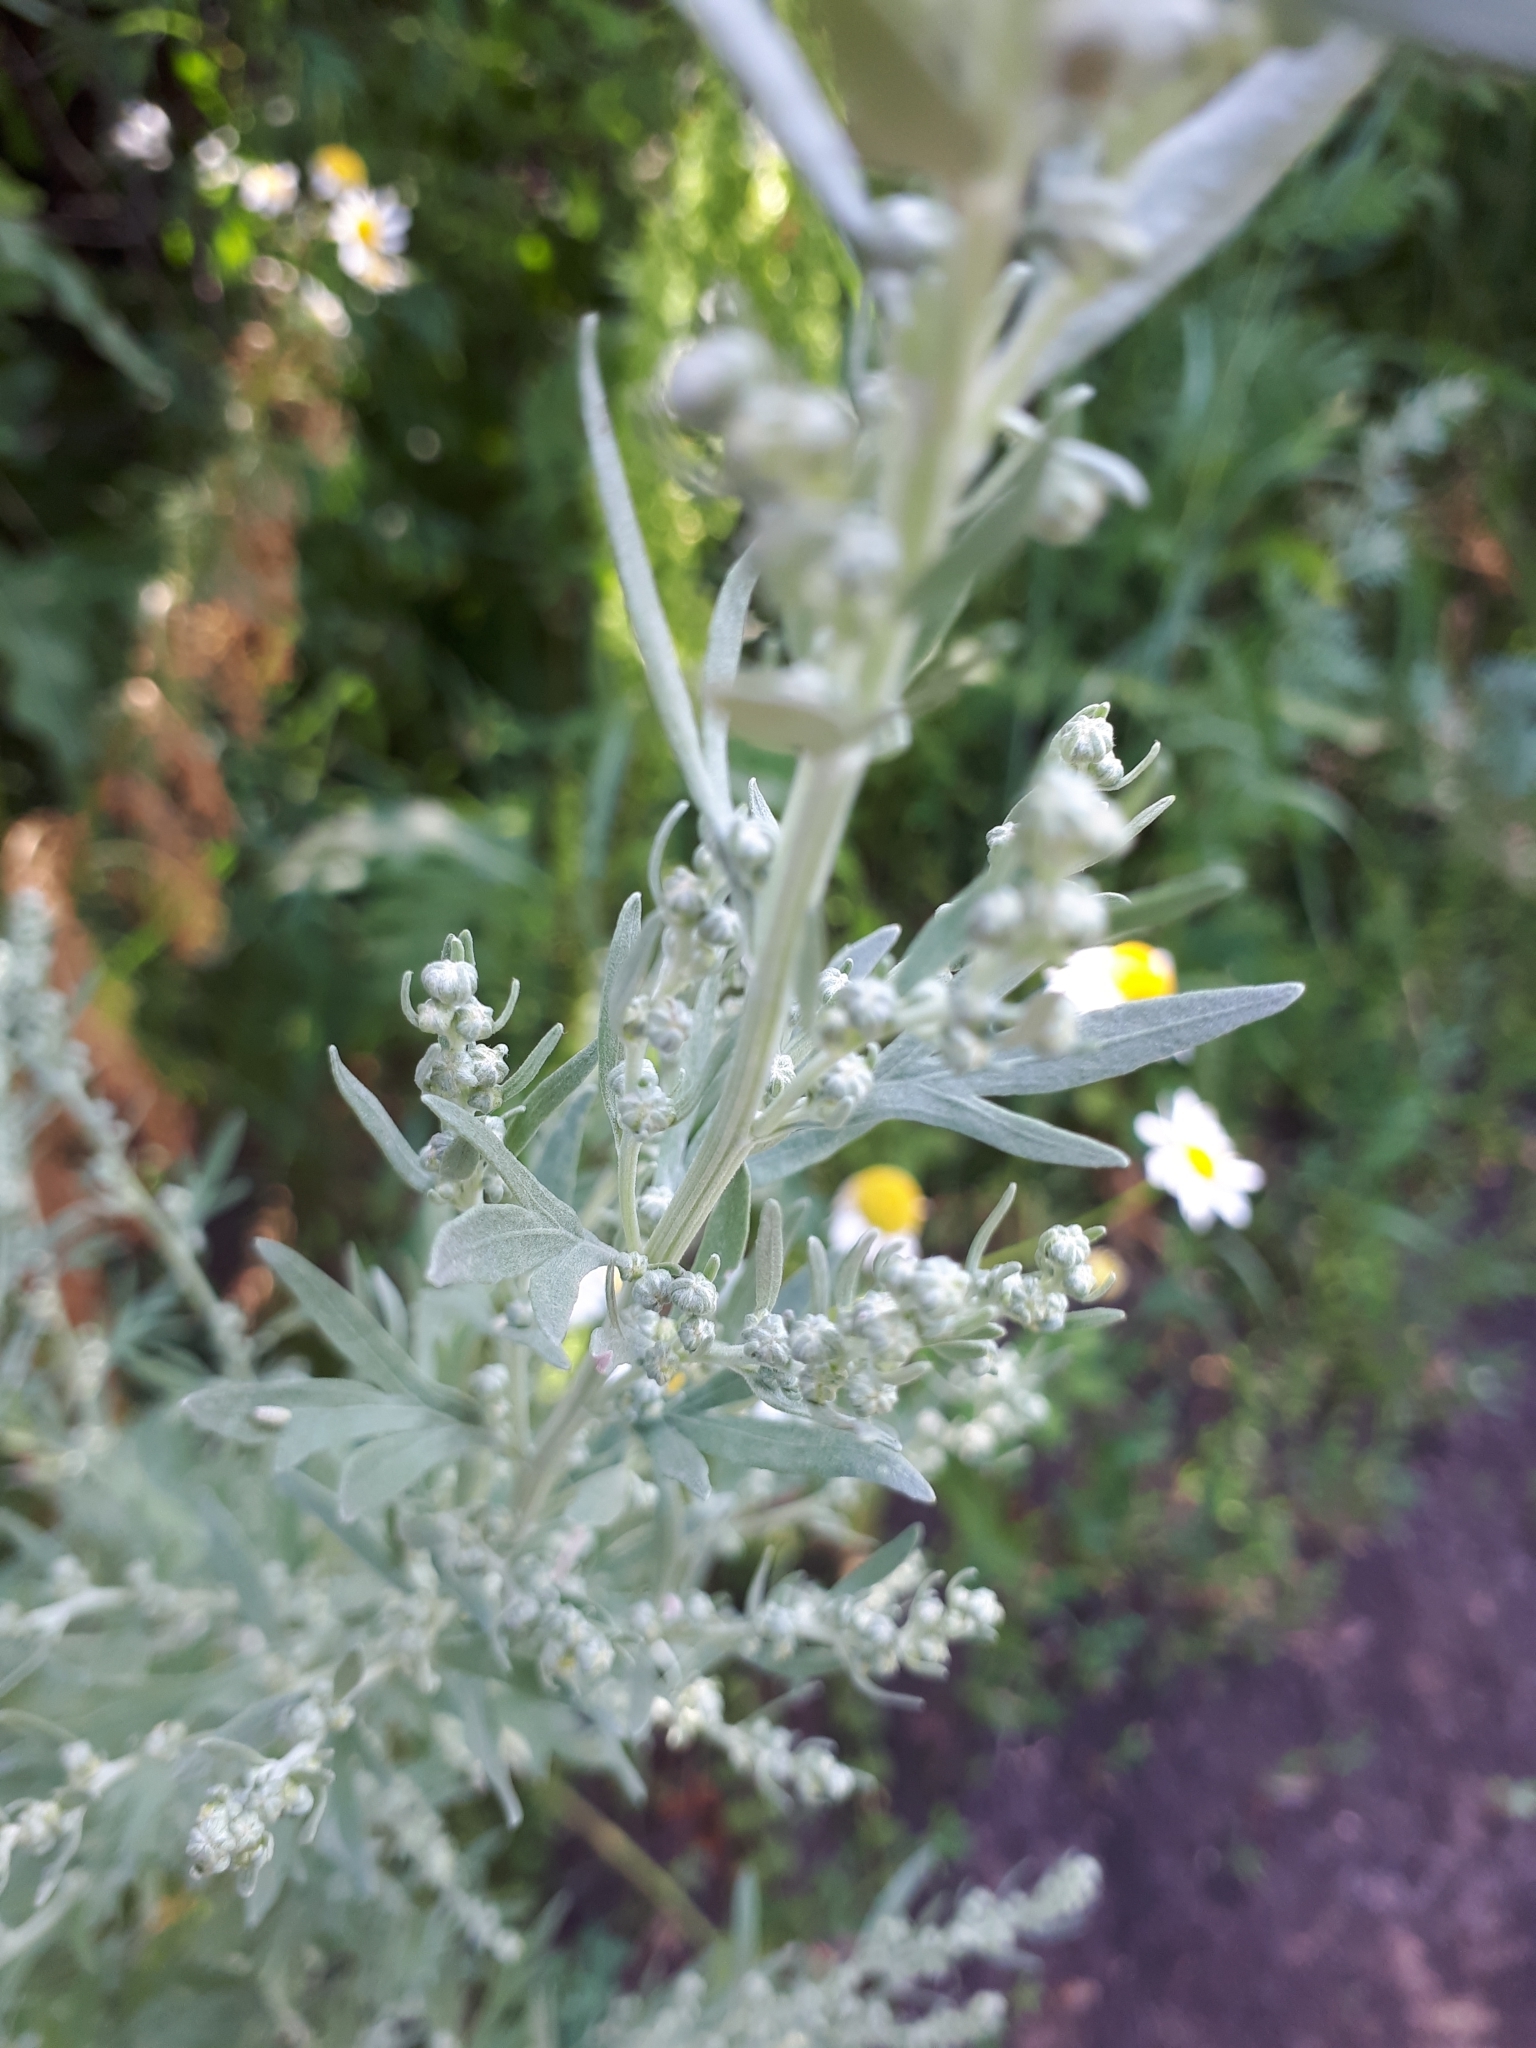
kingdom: Plantae
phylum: Tracheophyta
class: Magnoliopsida
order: Asterales
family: Asteraceae
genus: Artemisia
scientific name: Artemisia absinthium
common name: Wormwood
